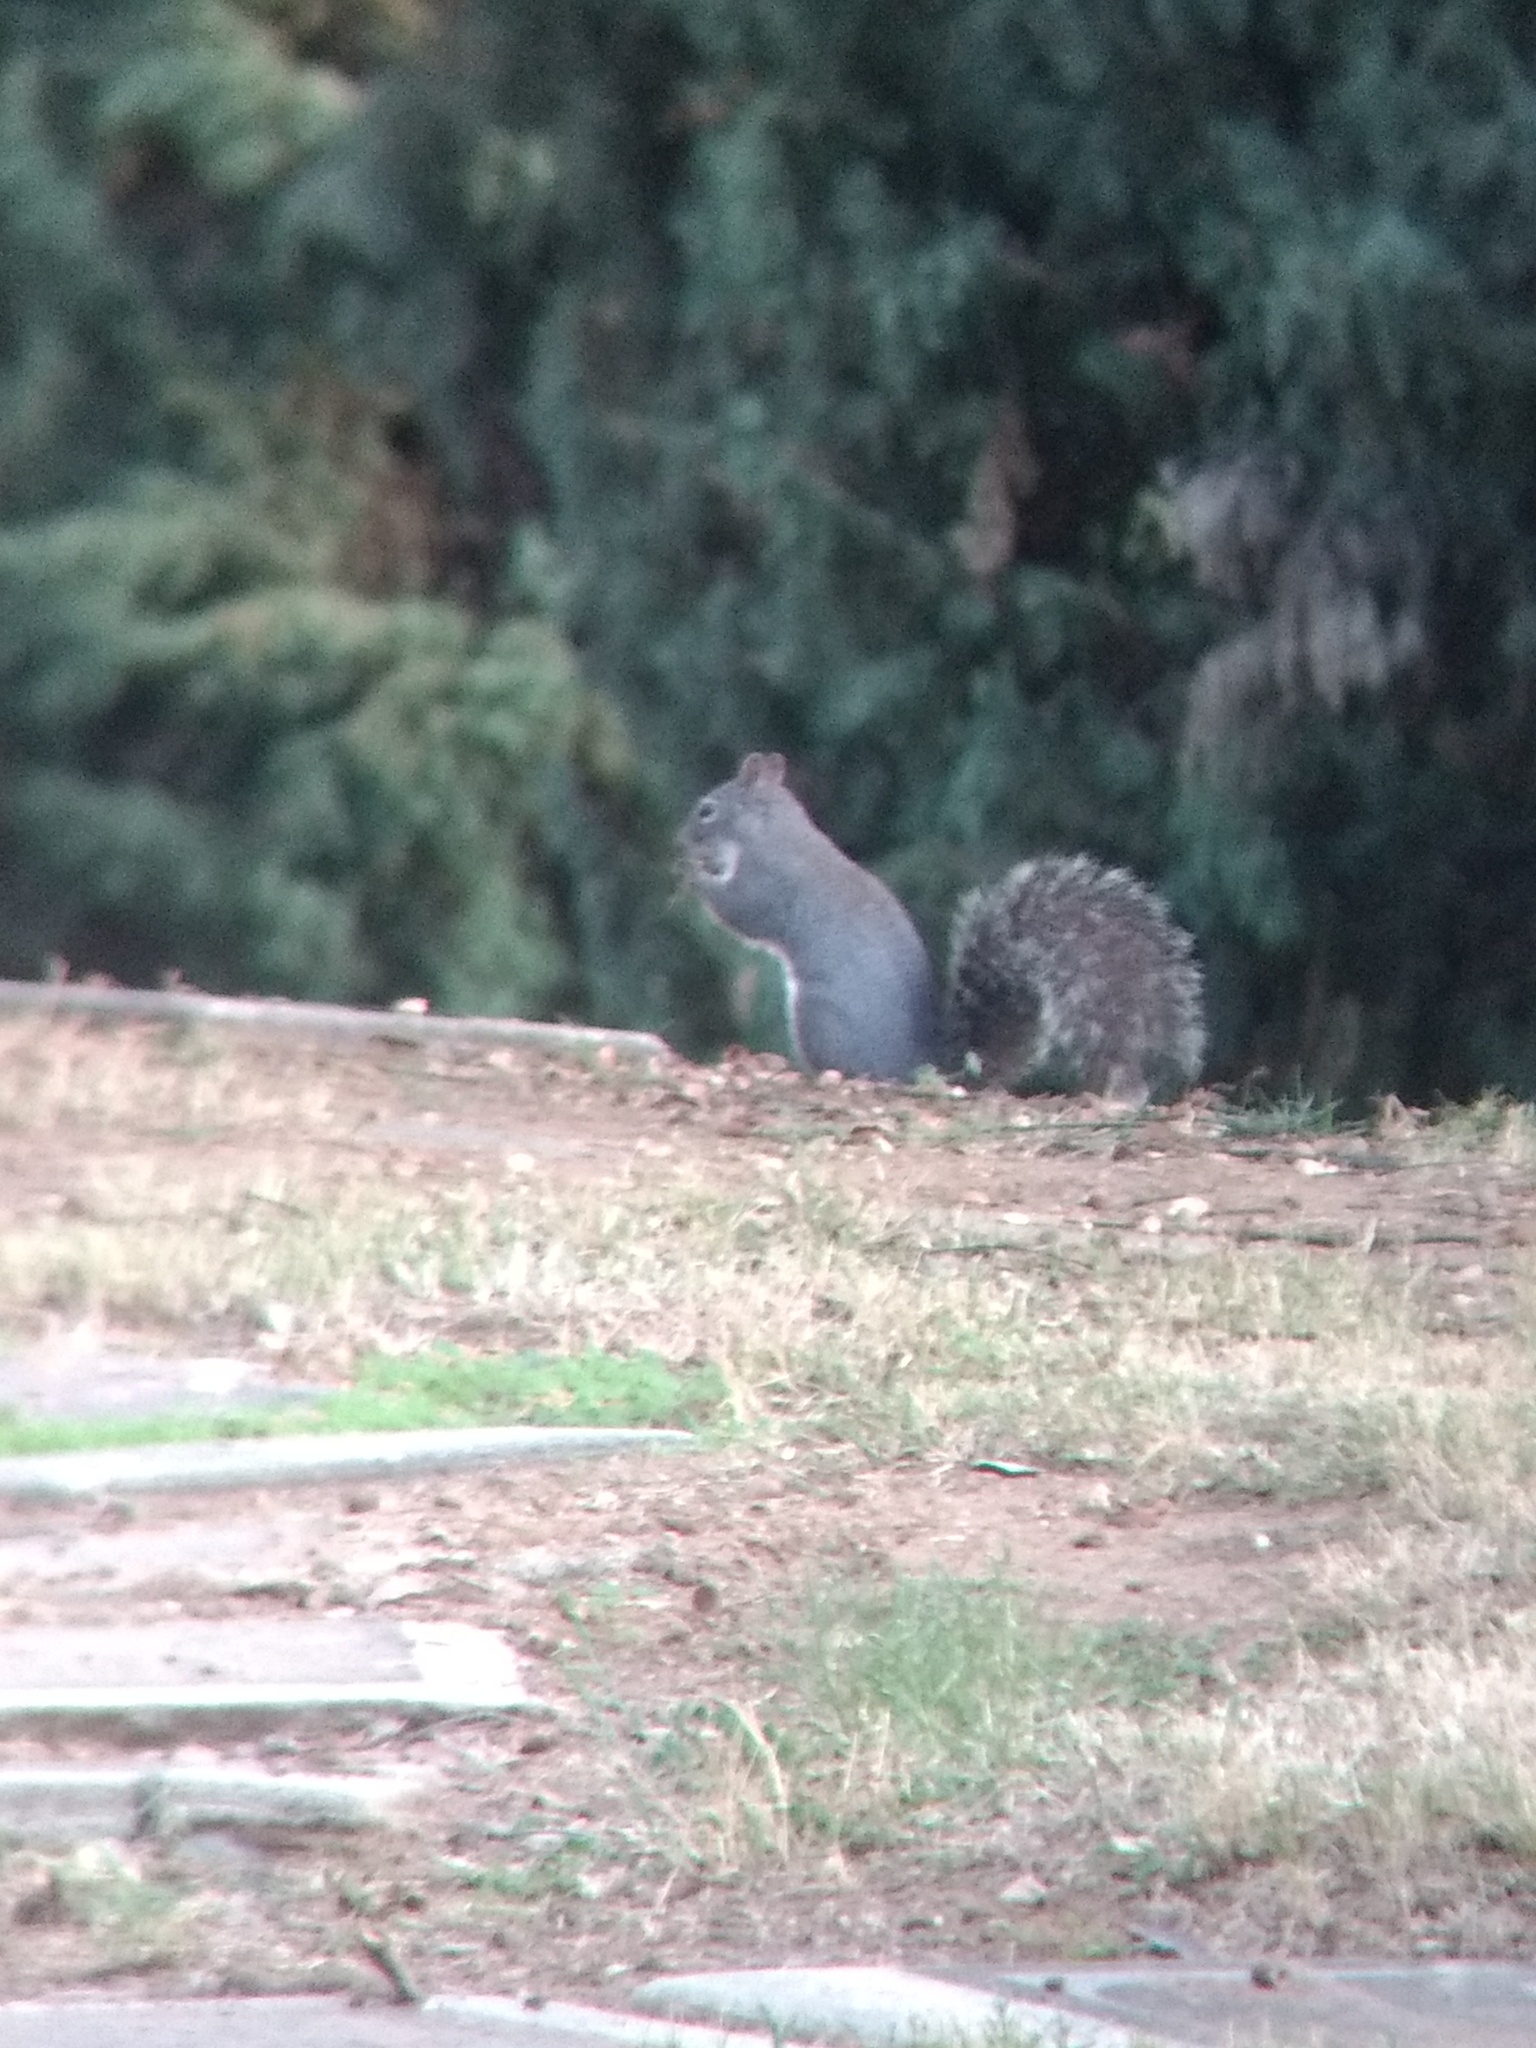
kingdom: Animalia
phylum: Chordata
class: Mammalia
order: Rodentia
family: Sciuridae
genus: Sciurus
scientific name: Sciurus griseus
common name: Western gray squirrel
